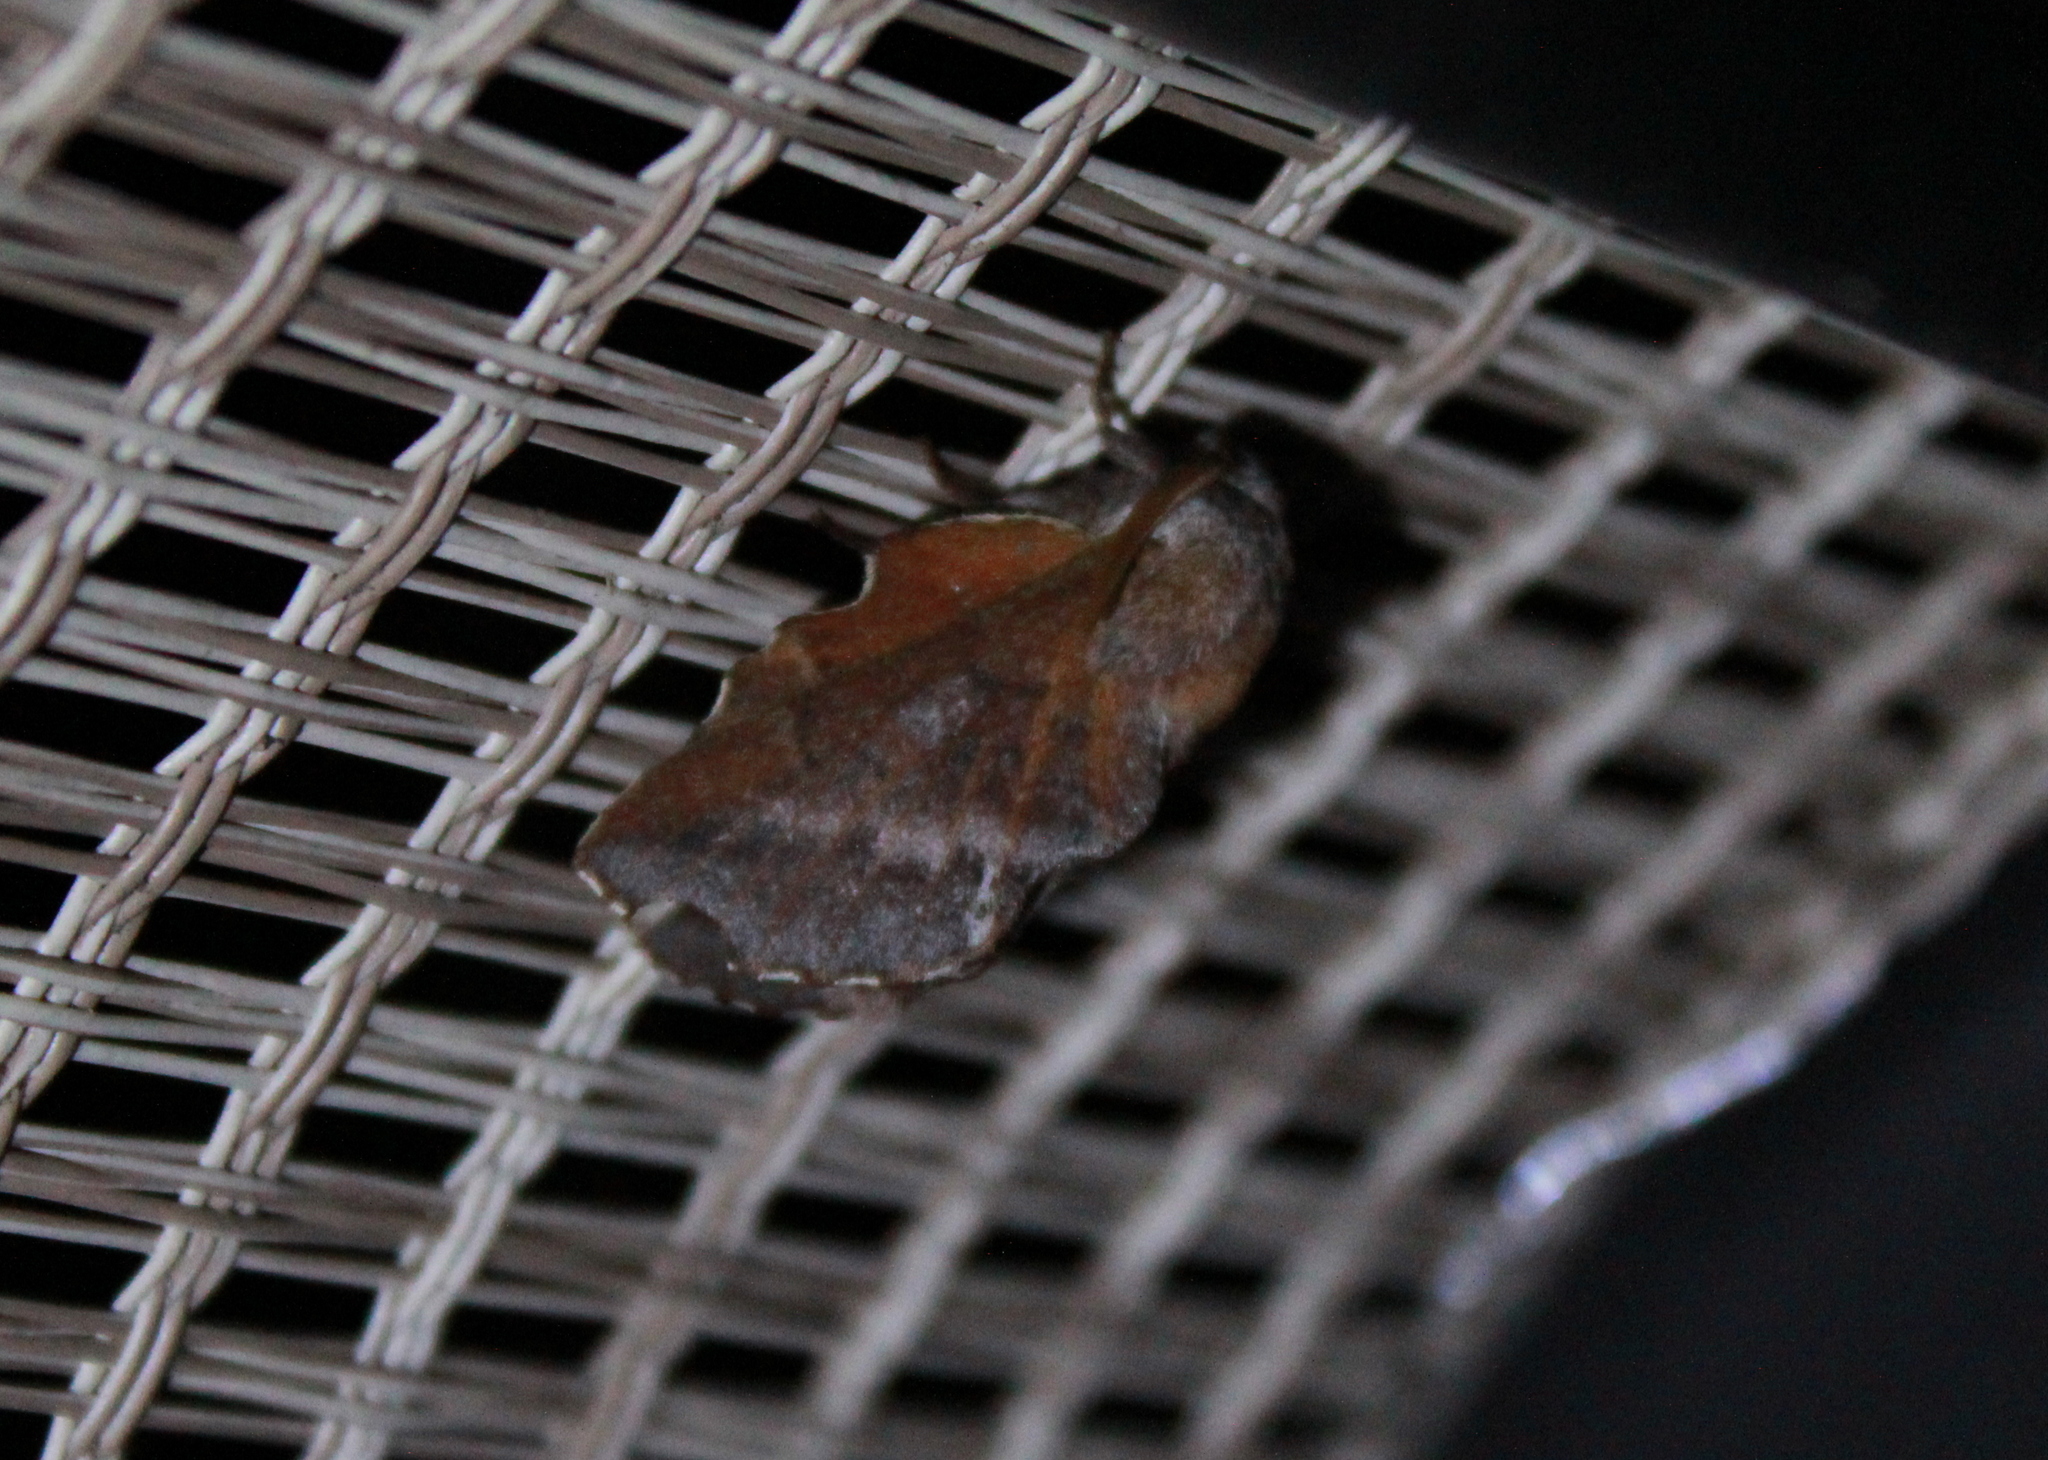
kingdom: Animalia
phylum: Arthropoda
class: Insecta
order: Lepidoptera
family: Lasiocampidae
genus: Phyllodesma
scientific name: Phyllodesma americana
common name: American lappet moth
